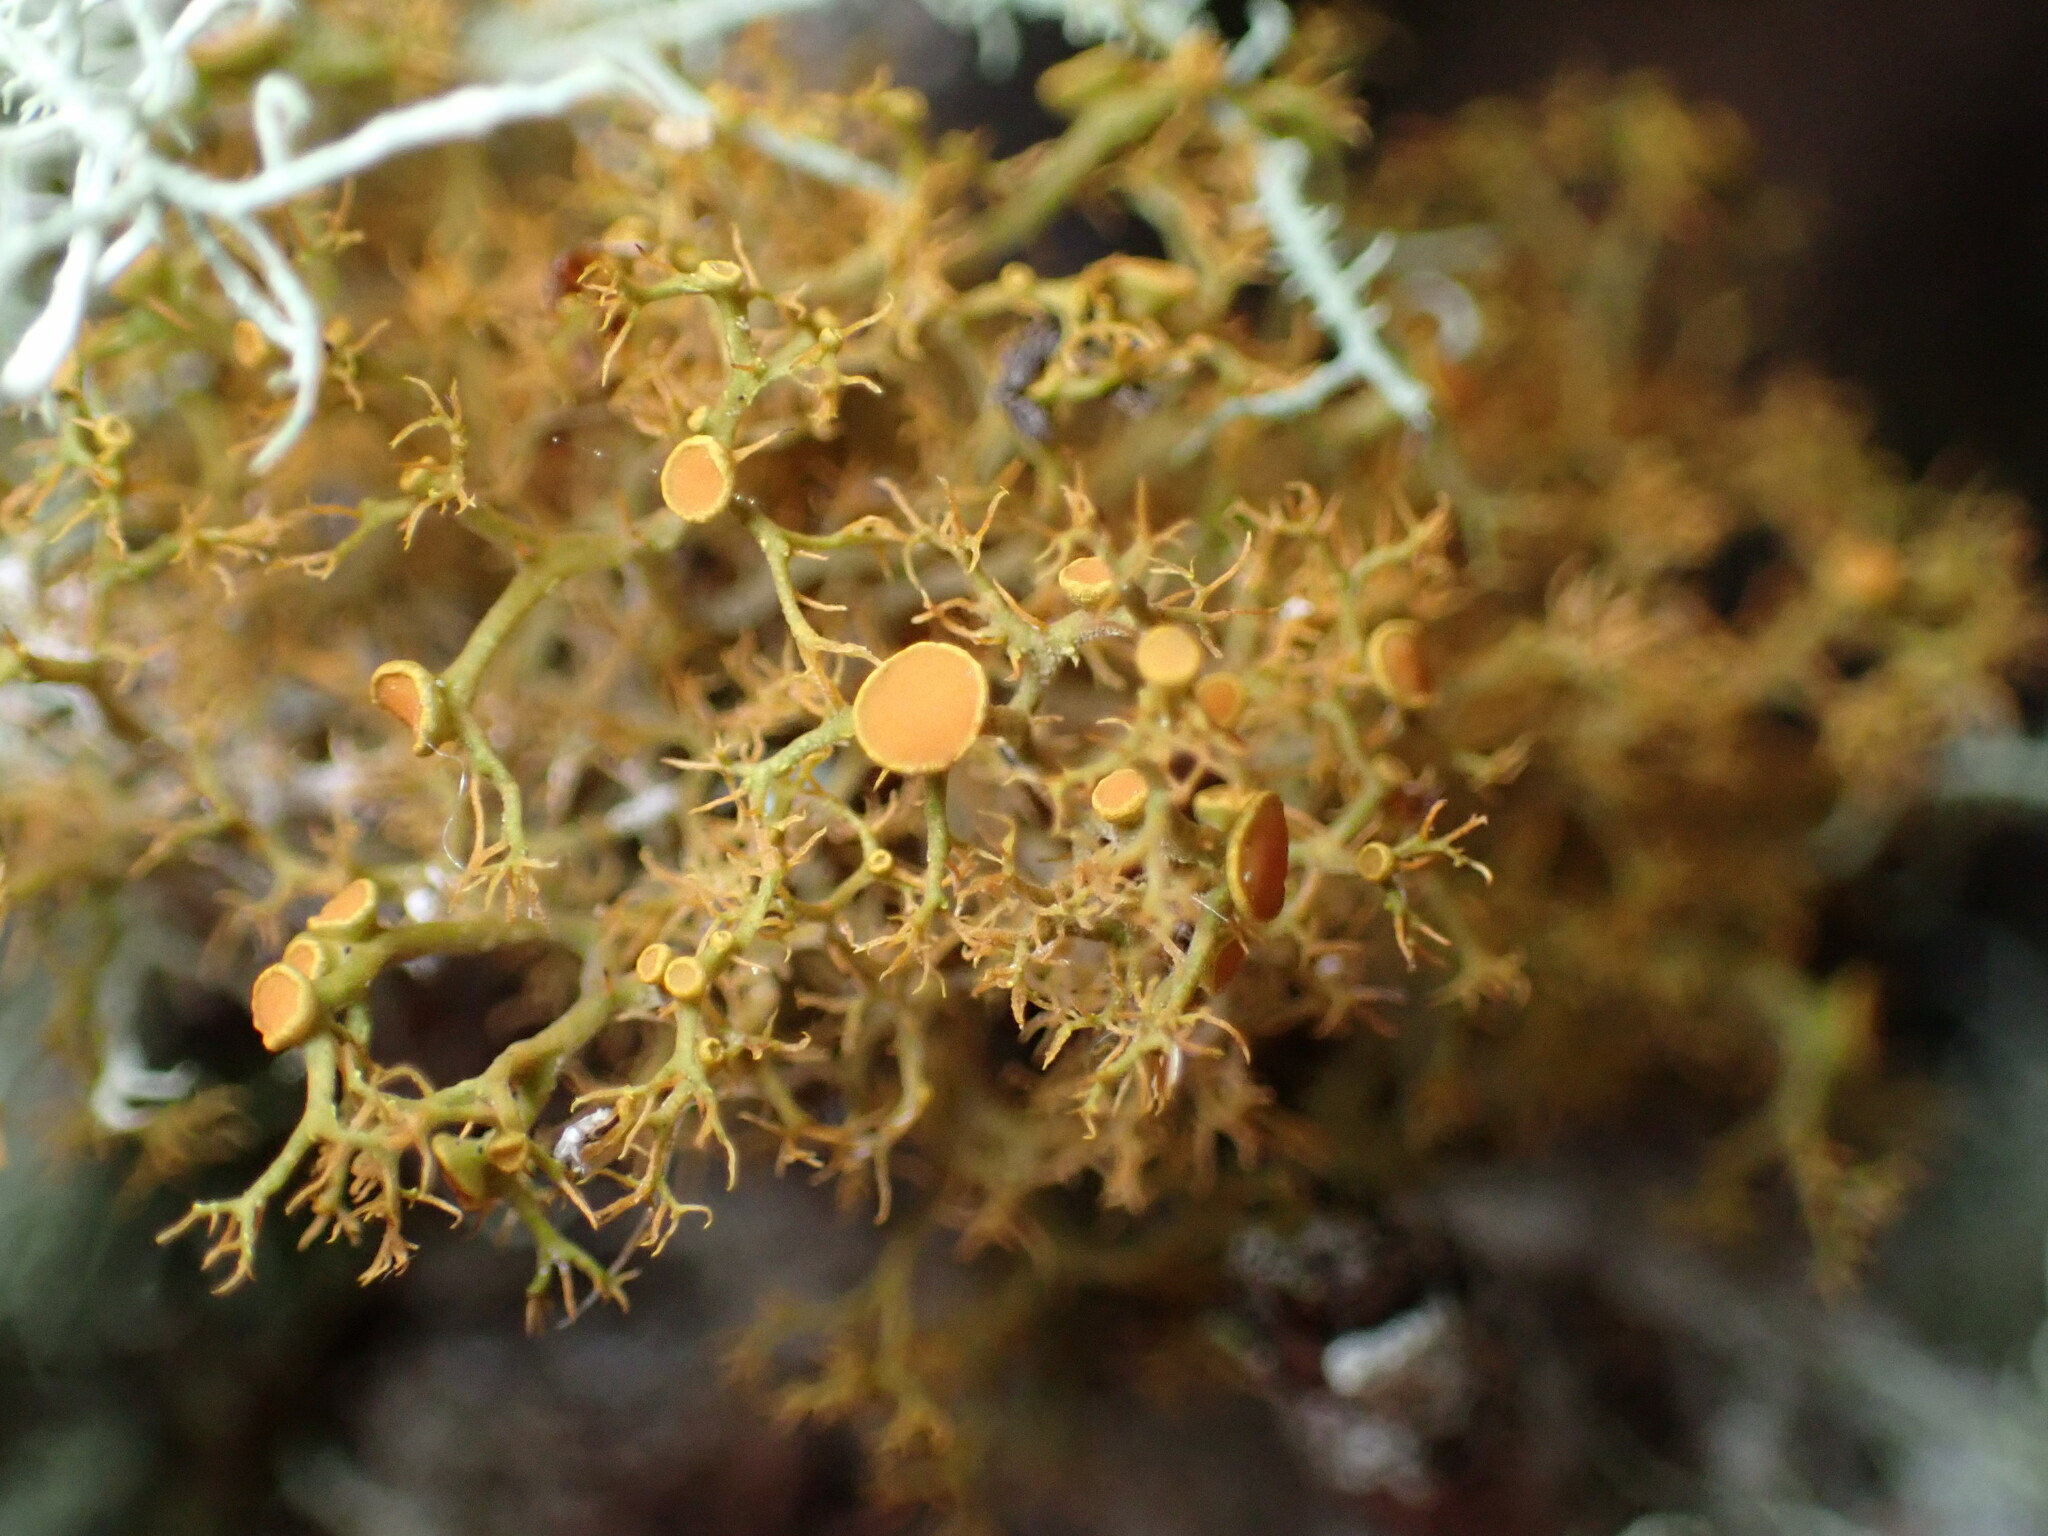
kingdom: Fungi
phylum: Ascomycota
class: Lecanoromycetes
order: Teloschistales
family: Teloschistaceae
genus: Teloschistes
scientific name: Teloschistes flavicans
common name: Golden hair-lichen
